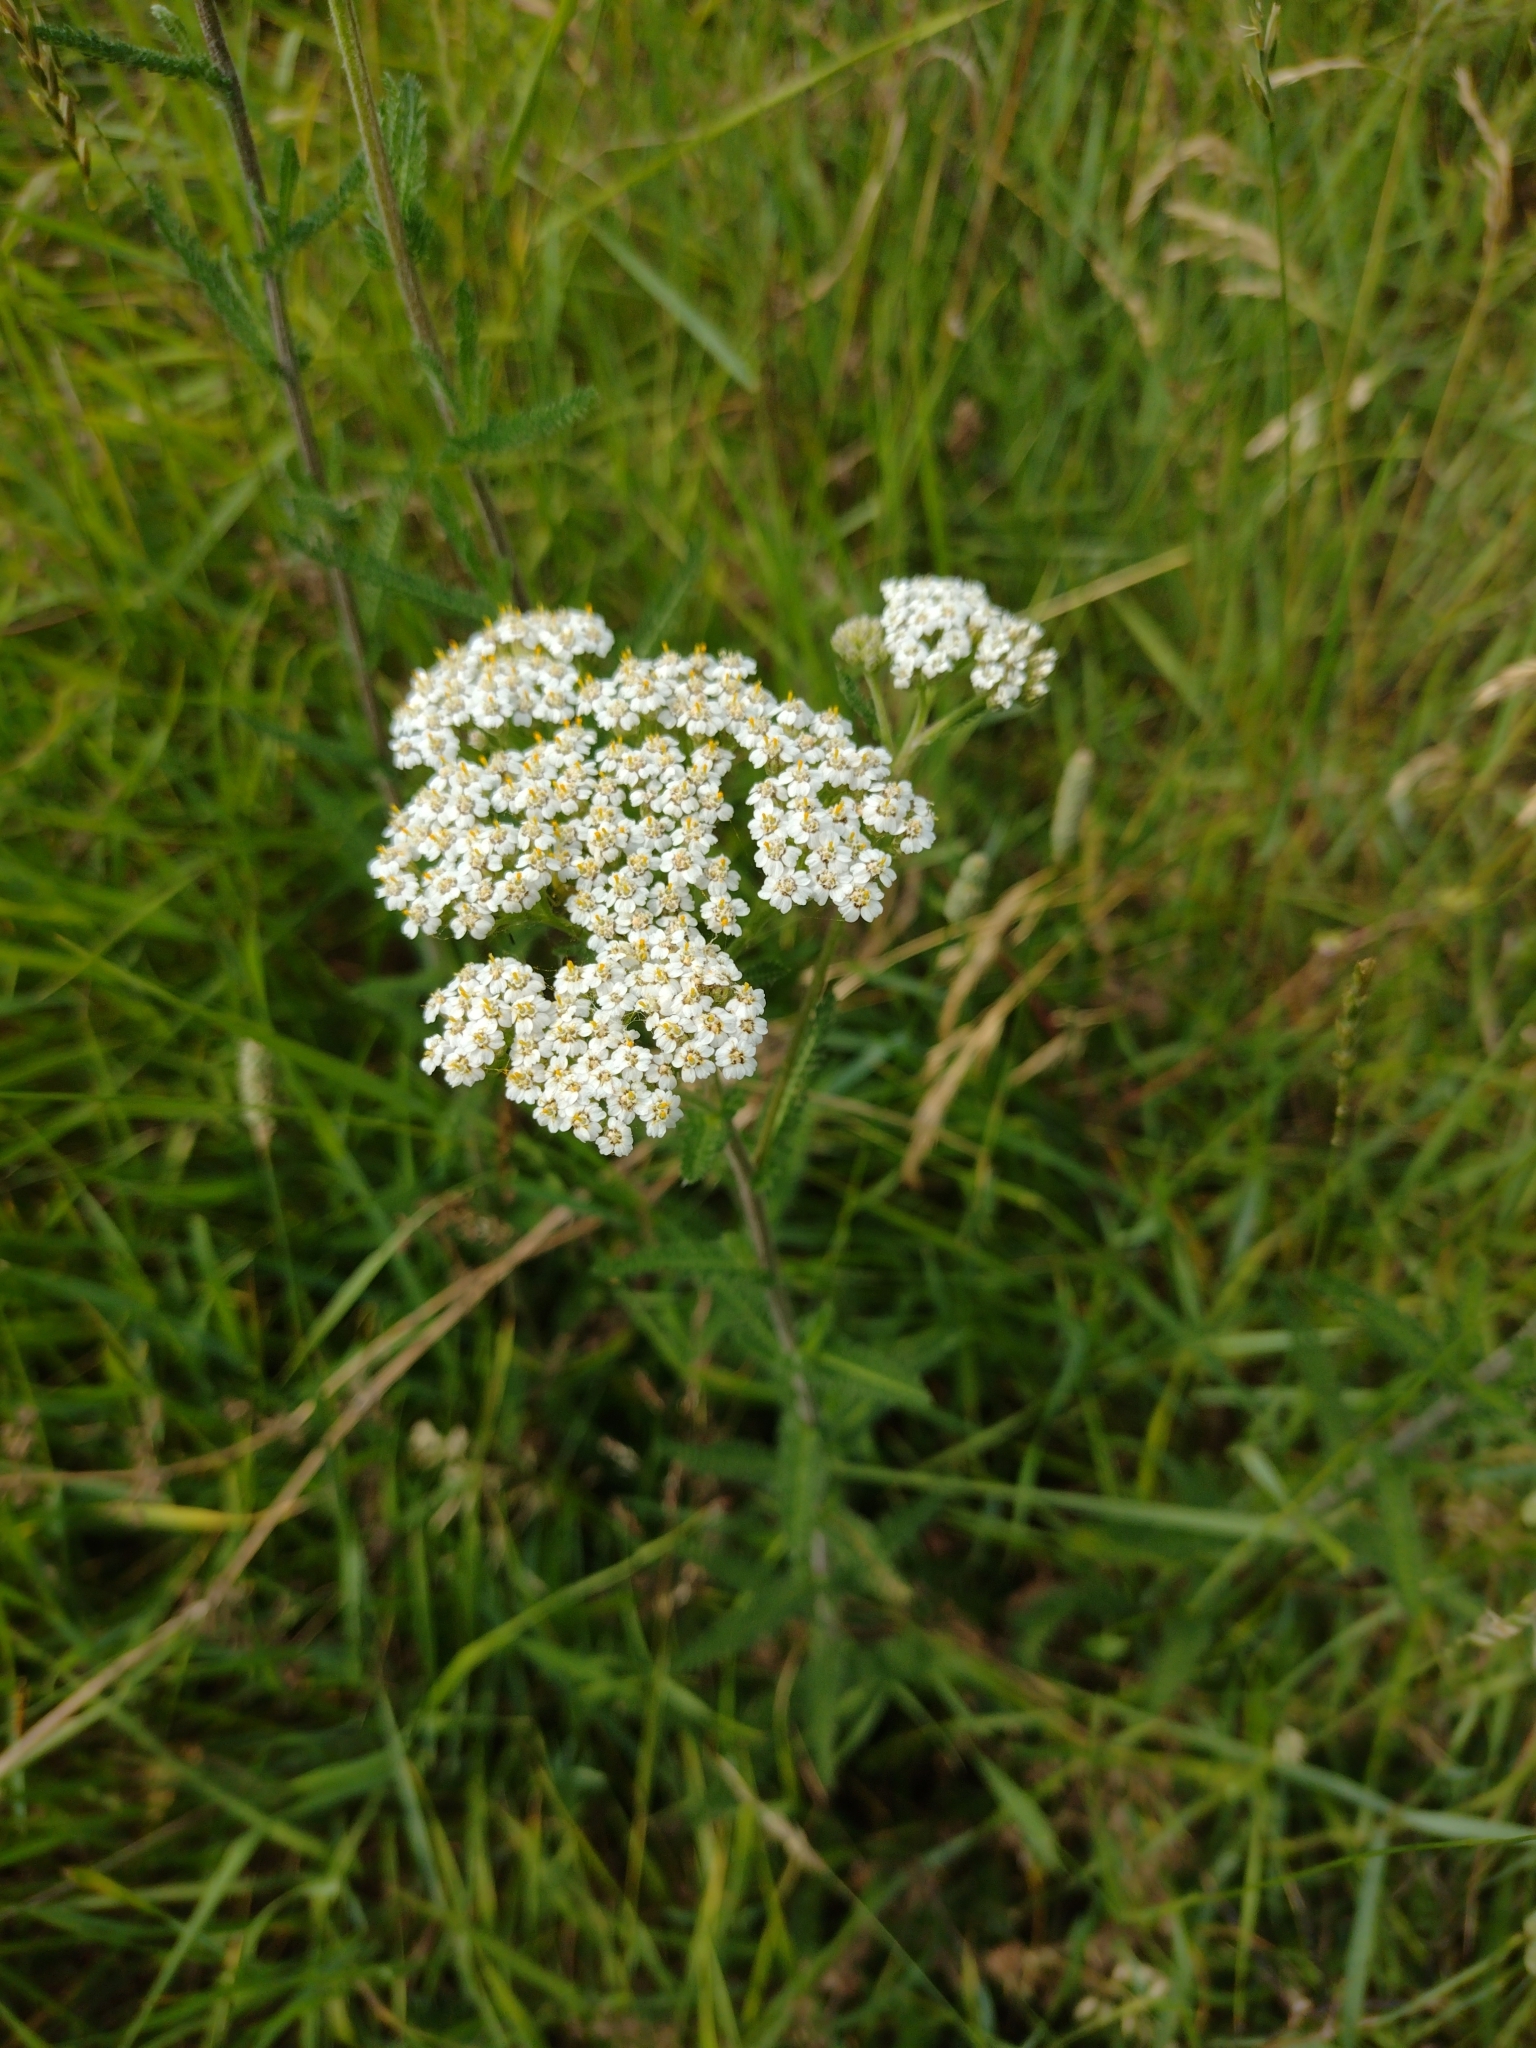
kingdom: Plantae
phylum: Tracheophyta
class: Magnoliopsida
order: Asterales
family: Asteraceae
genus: Achillea
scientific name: Achillea millefolium
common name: Yarrow
